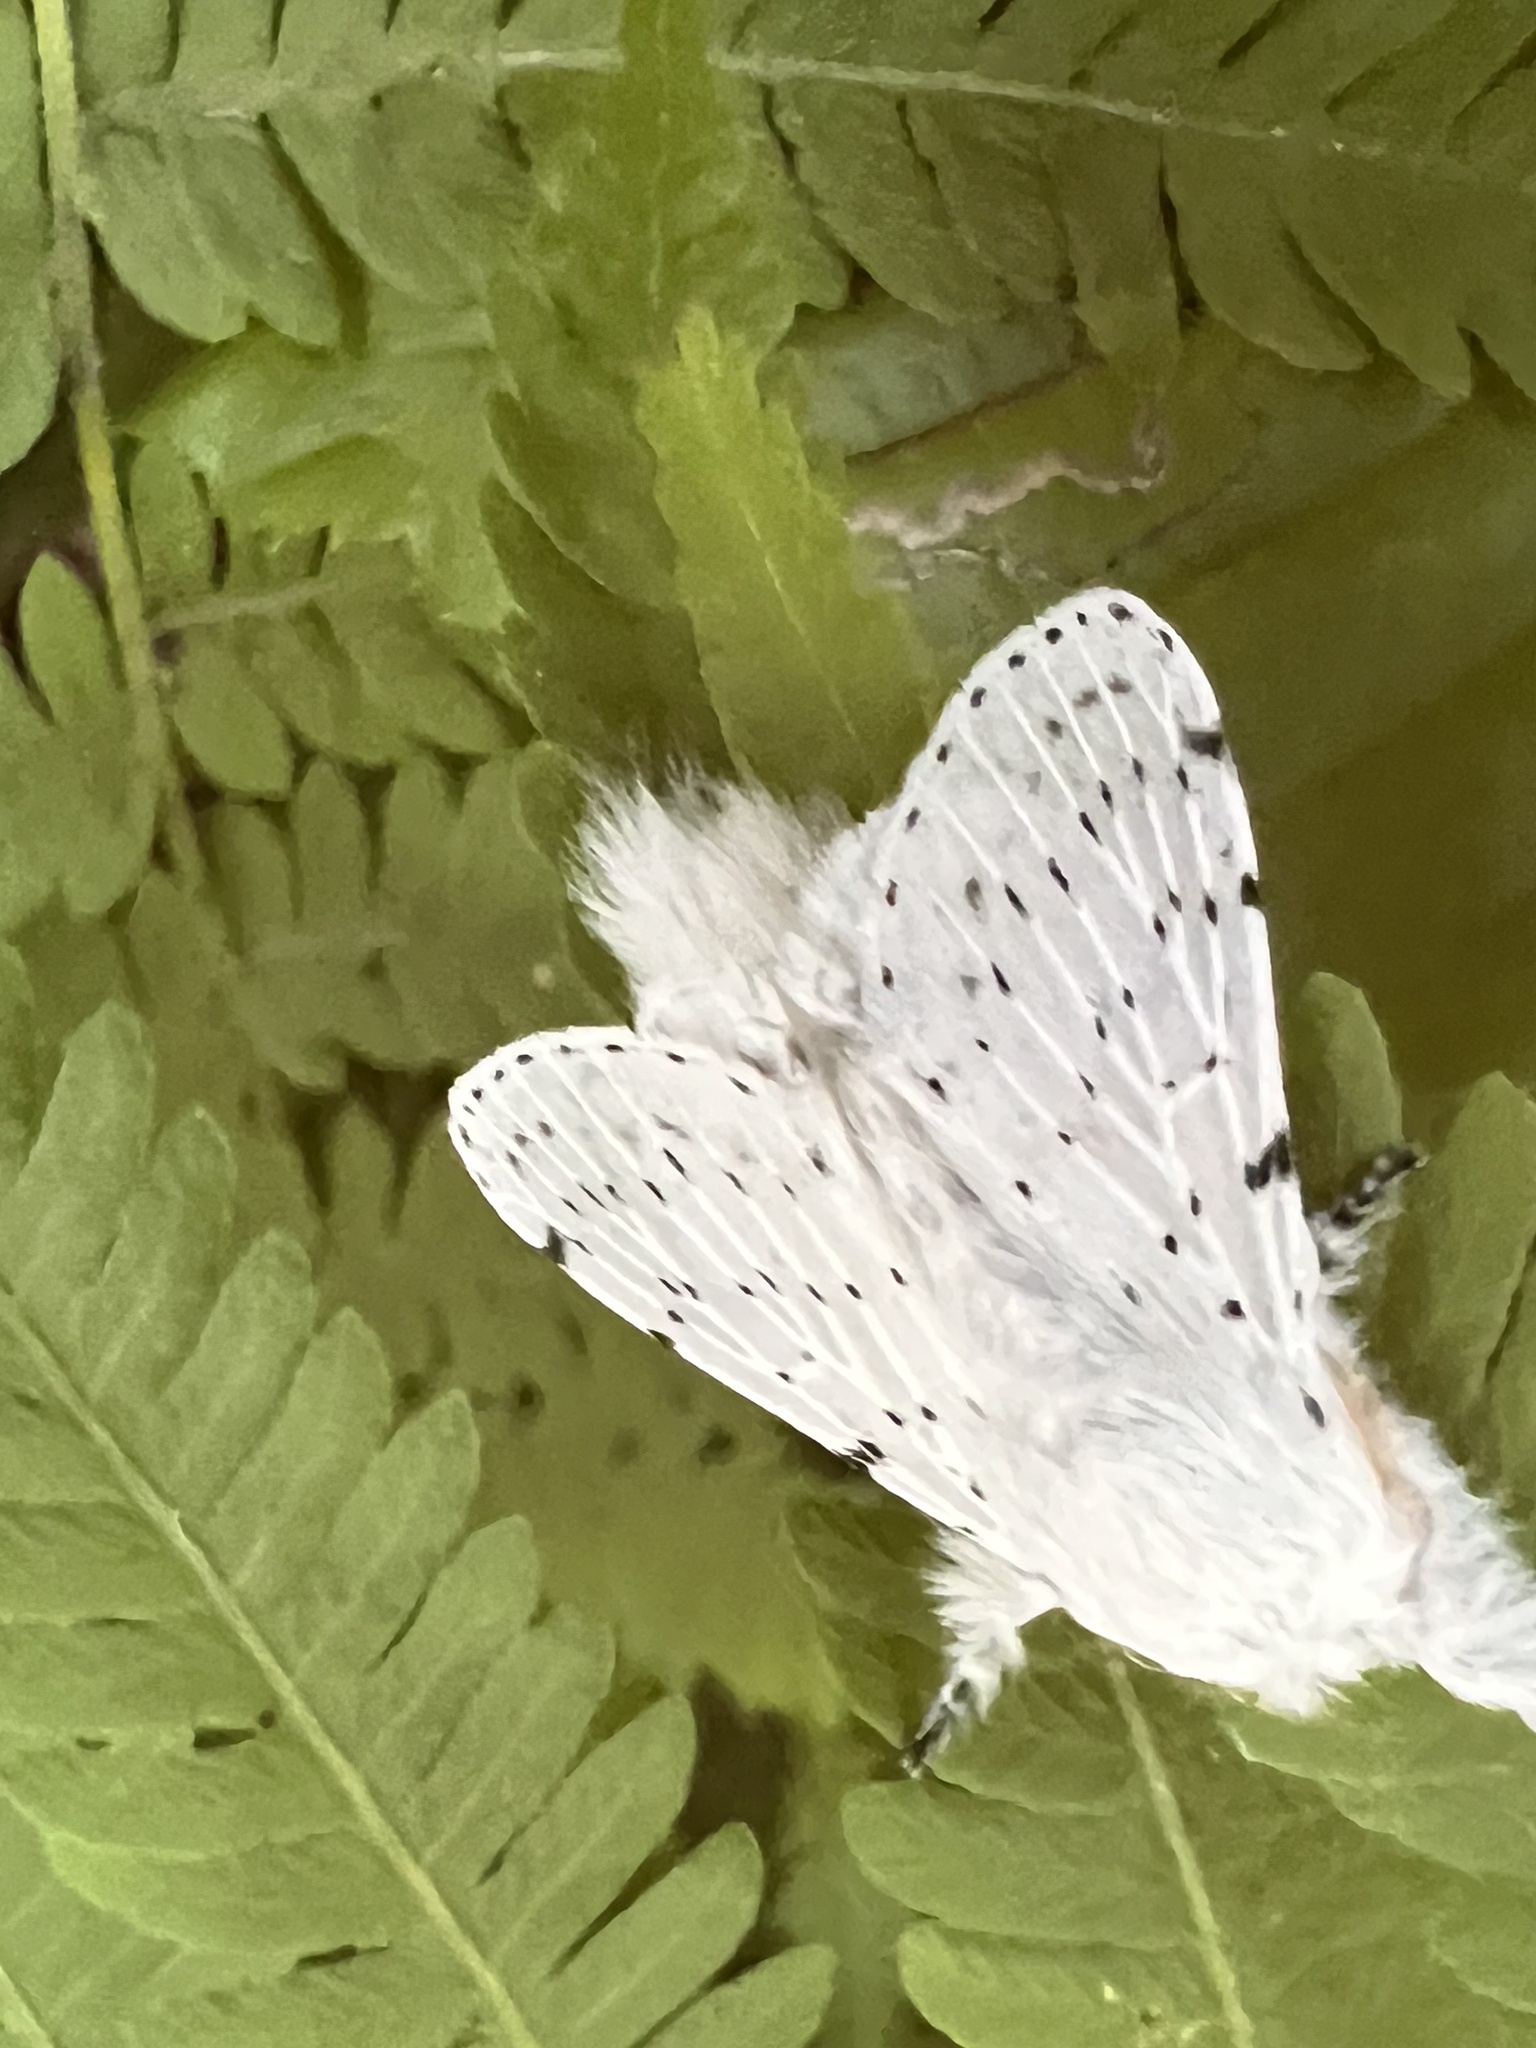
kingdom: Animalia
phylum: Arthropoda
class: Insecta
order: Lepidoptera
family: Lasiocampidae
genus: Artace
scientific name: Artace cribrarius
